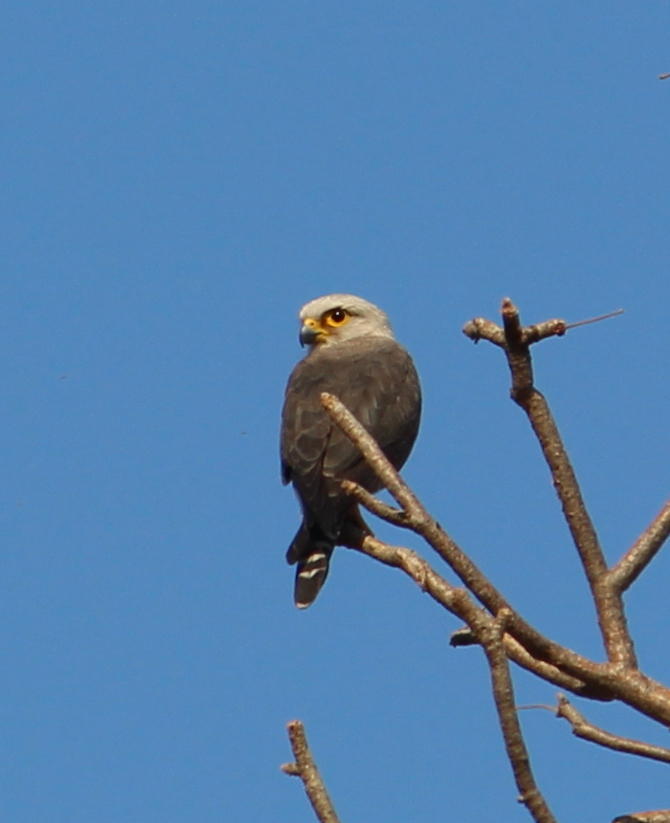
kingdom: Animalia
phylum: Chordata
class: Aves
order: Falconiformes
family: Falconidae
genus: Falco
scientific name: Falco dickinsoni
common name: Dickinson's kestrel
